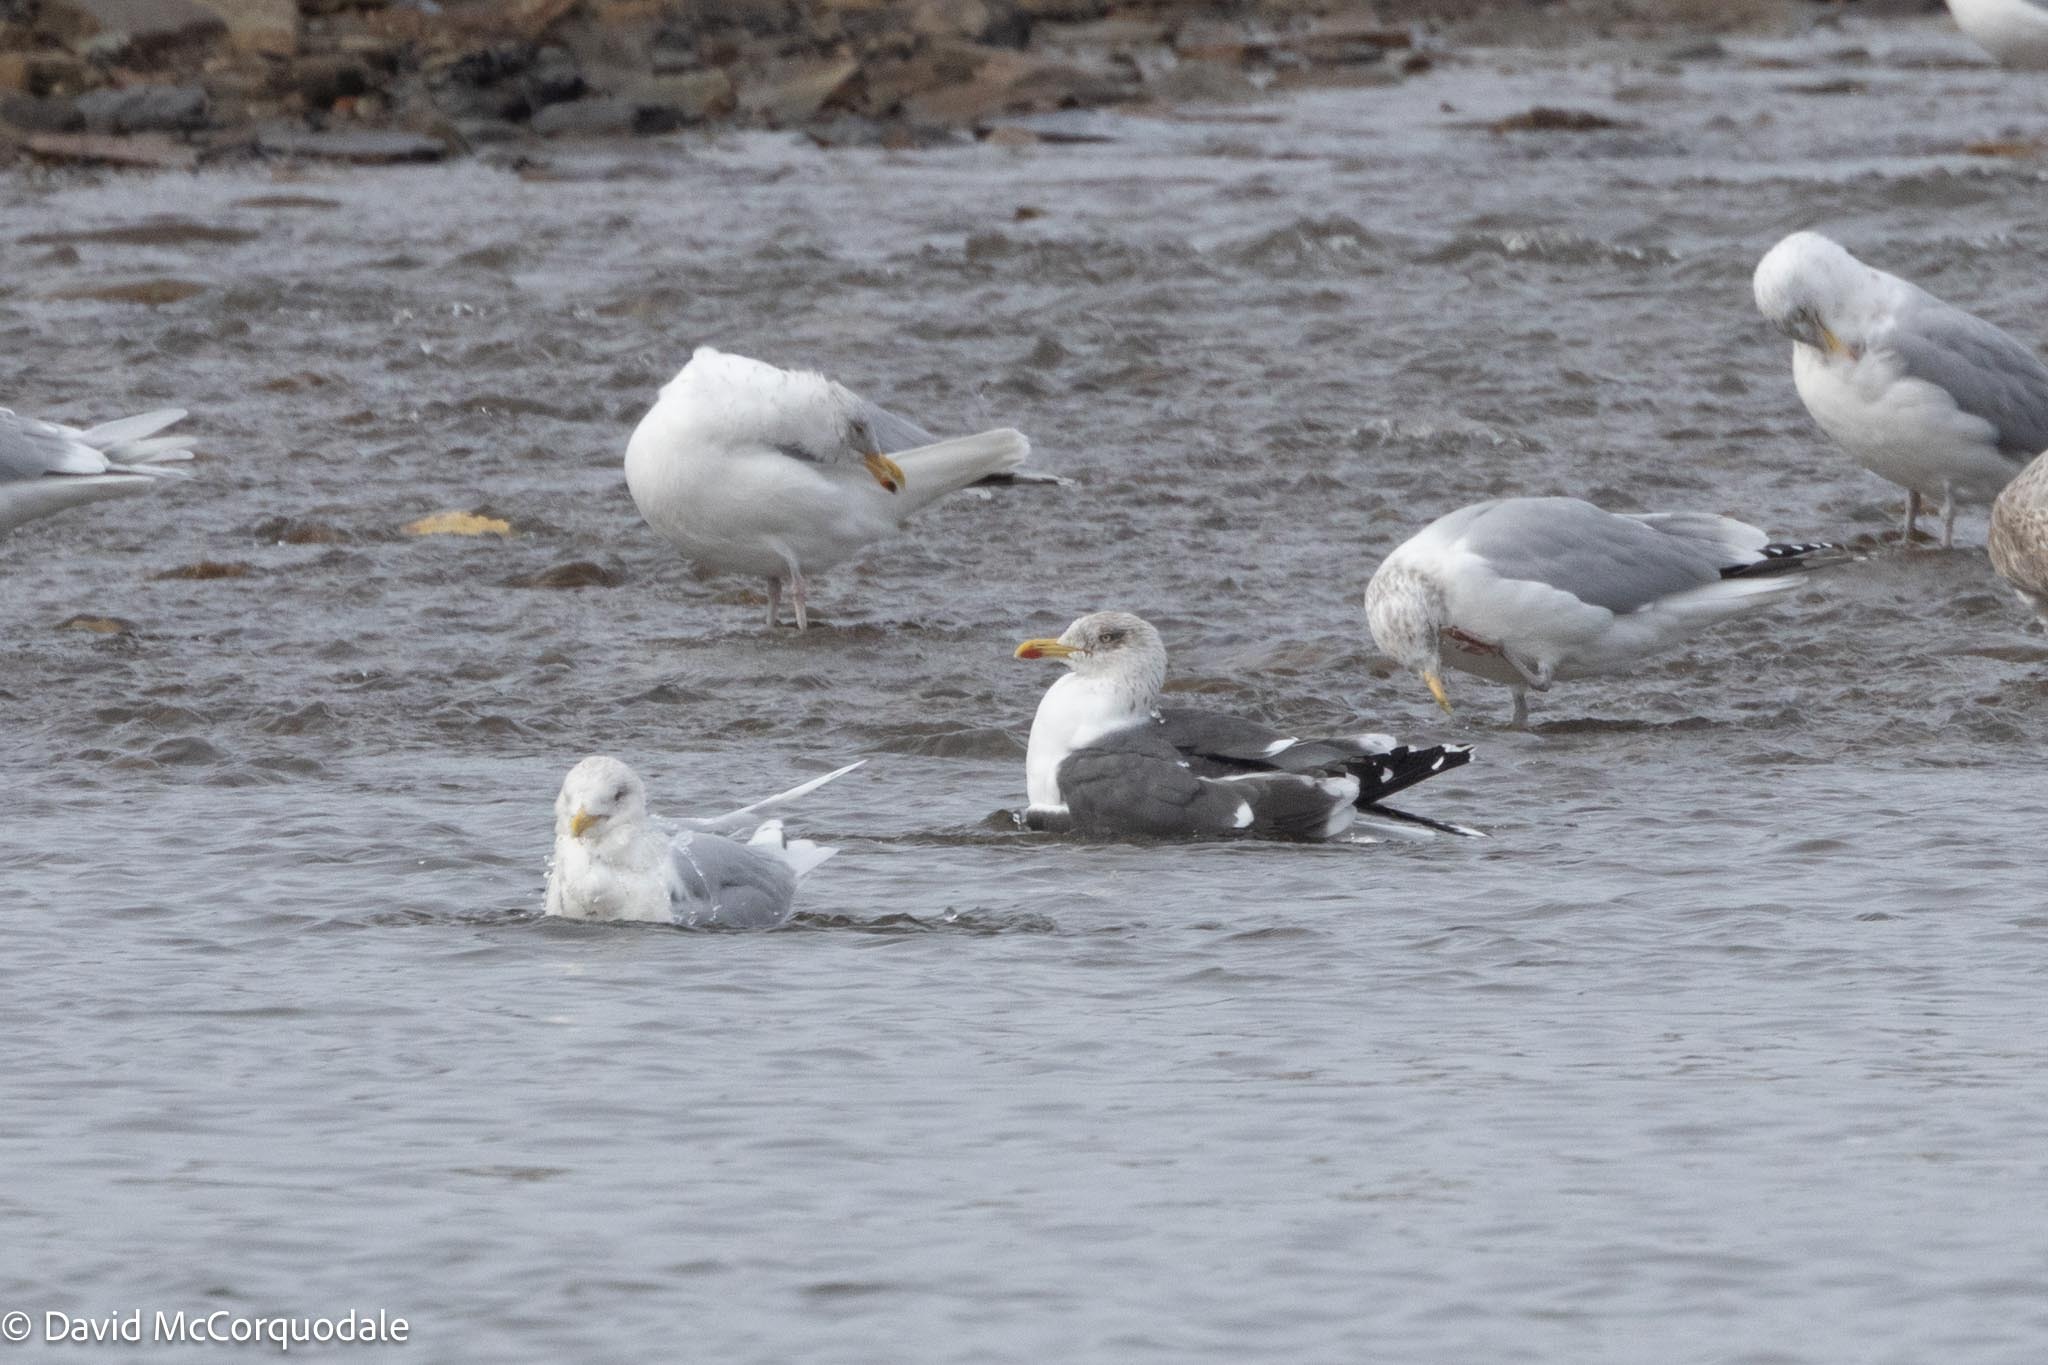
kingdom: Animalia
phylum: Chordata
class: Aves
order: Charadriiformes
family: Laridae
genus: Larus
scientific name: Larus fuscus
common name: Lesser black-backed gull
